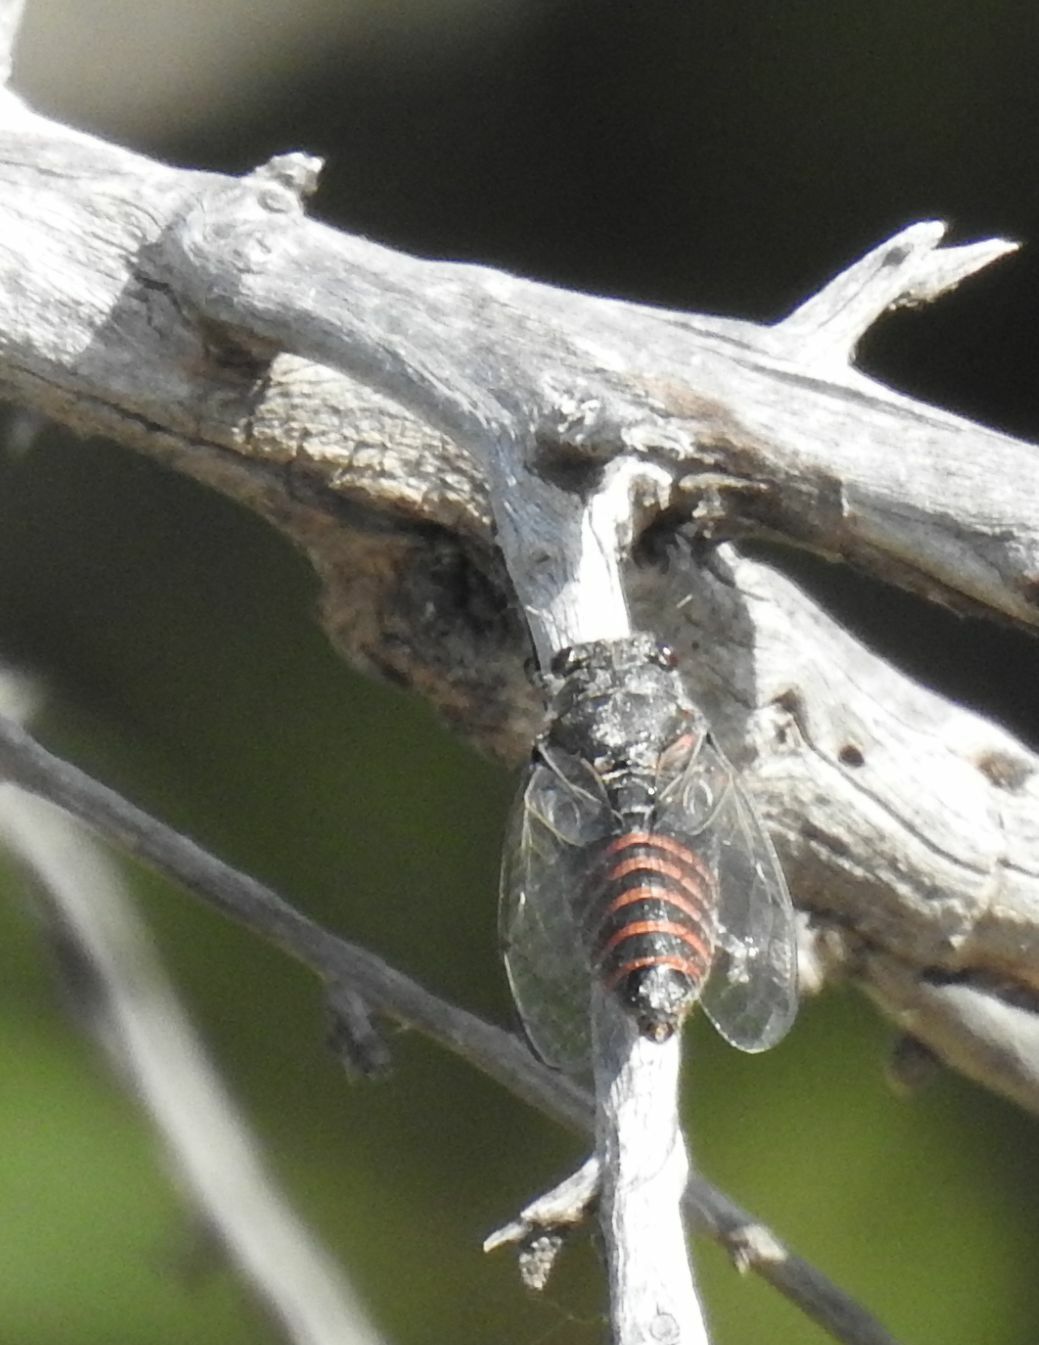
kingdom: Animalia
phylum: Arthropoda
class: Insecta
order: Hemiptera
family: Cicadidae
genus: Oligoglena
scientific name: Oligoglena carayoni
